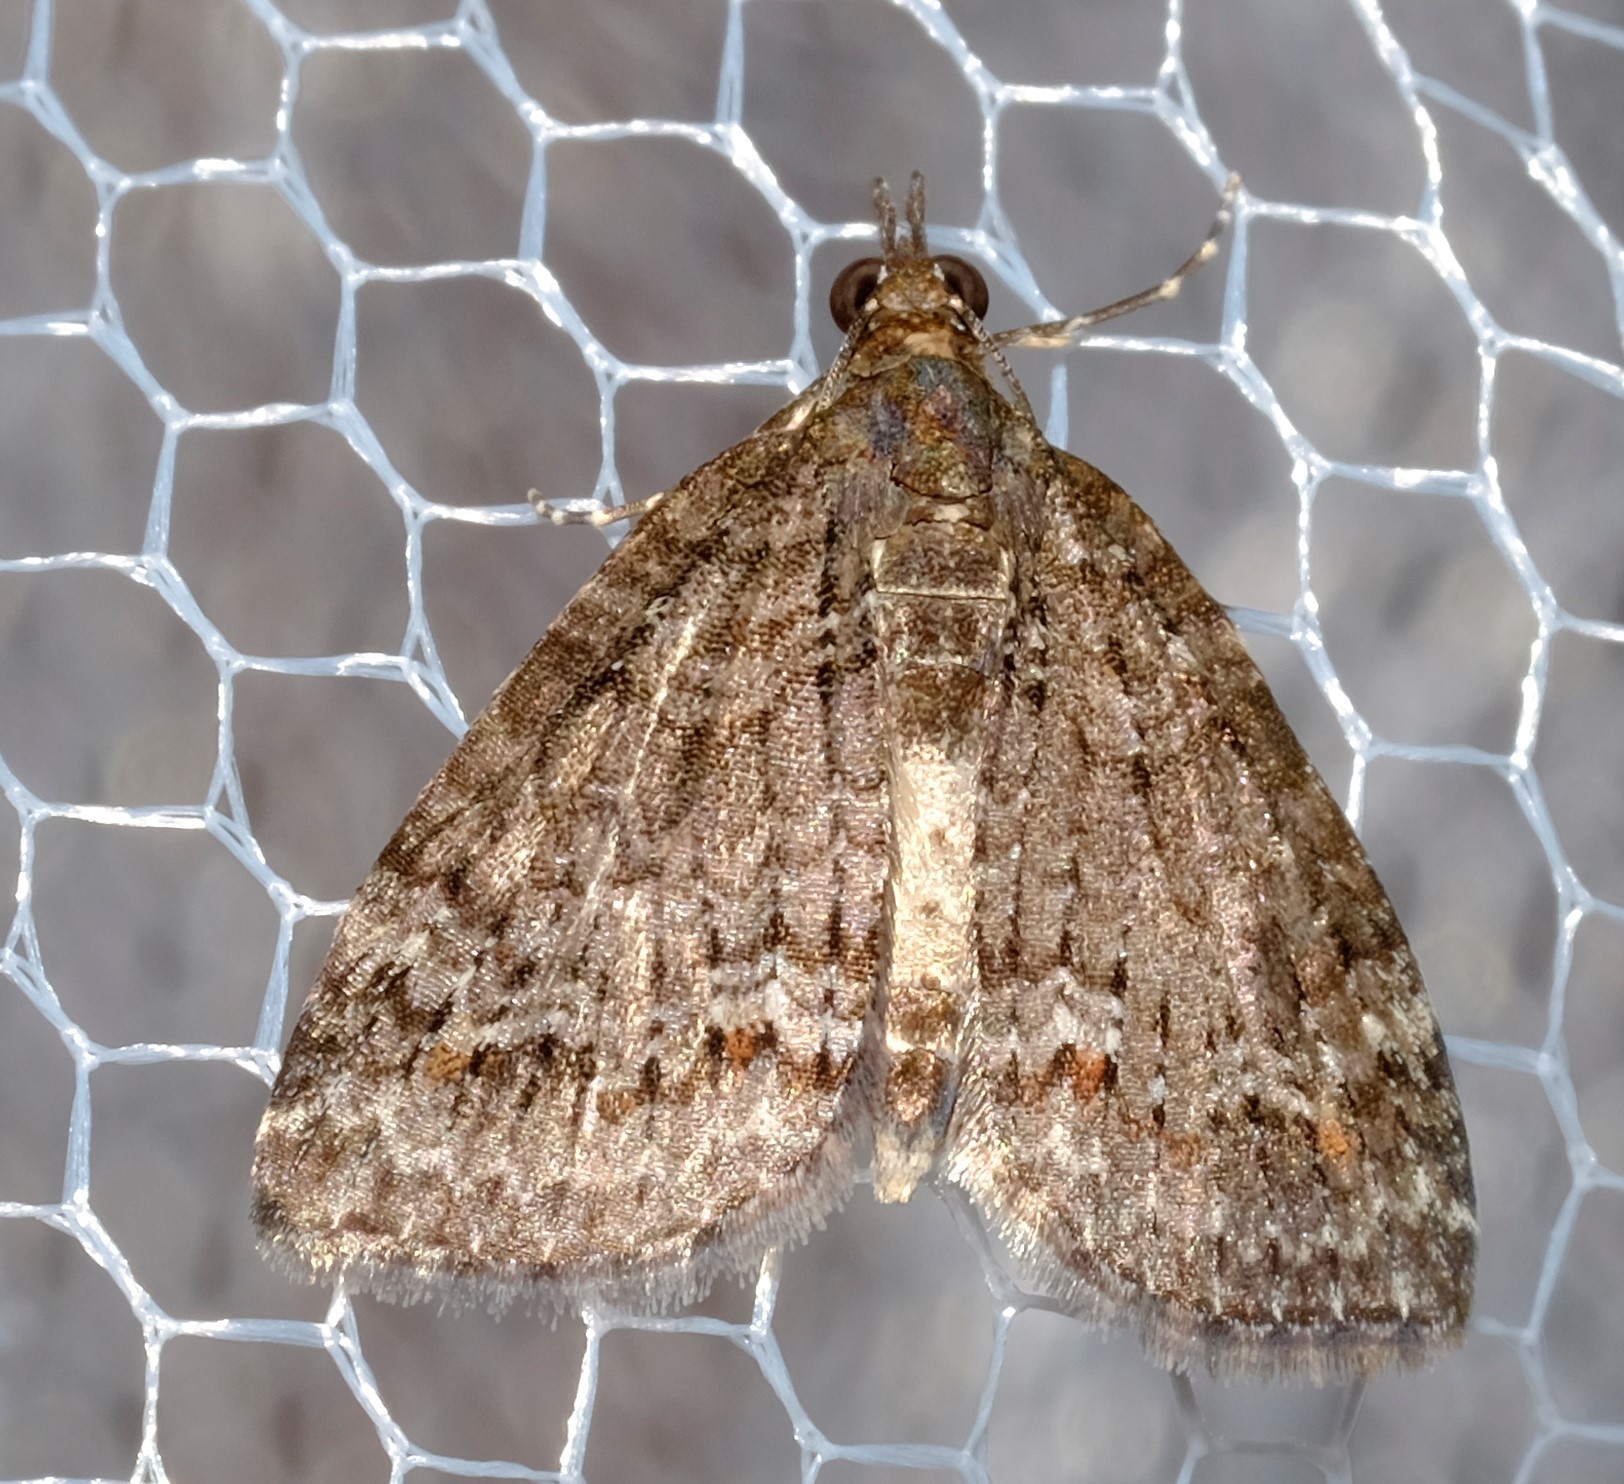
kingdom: Animalia
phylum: Arthropoda
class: Insecta
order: Lepidoptera
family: Geometridae
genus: Microdes
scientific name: Microdes squamulata
